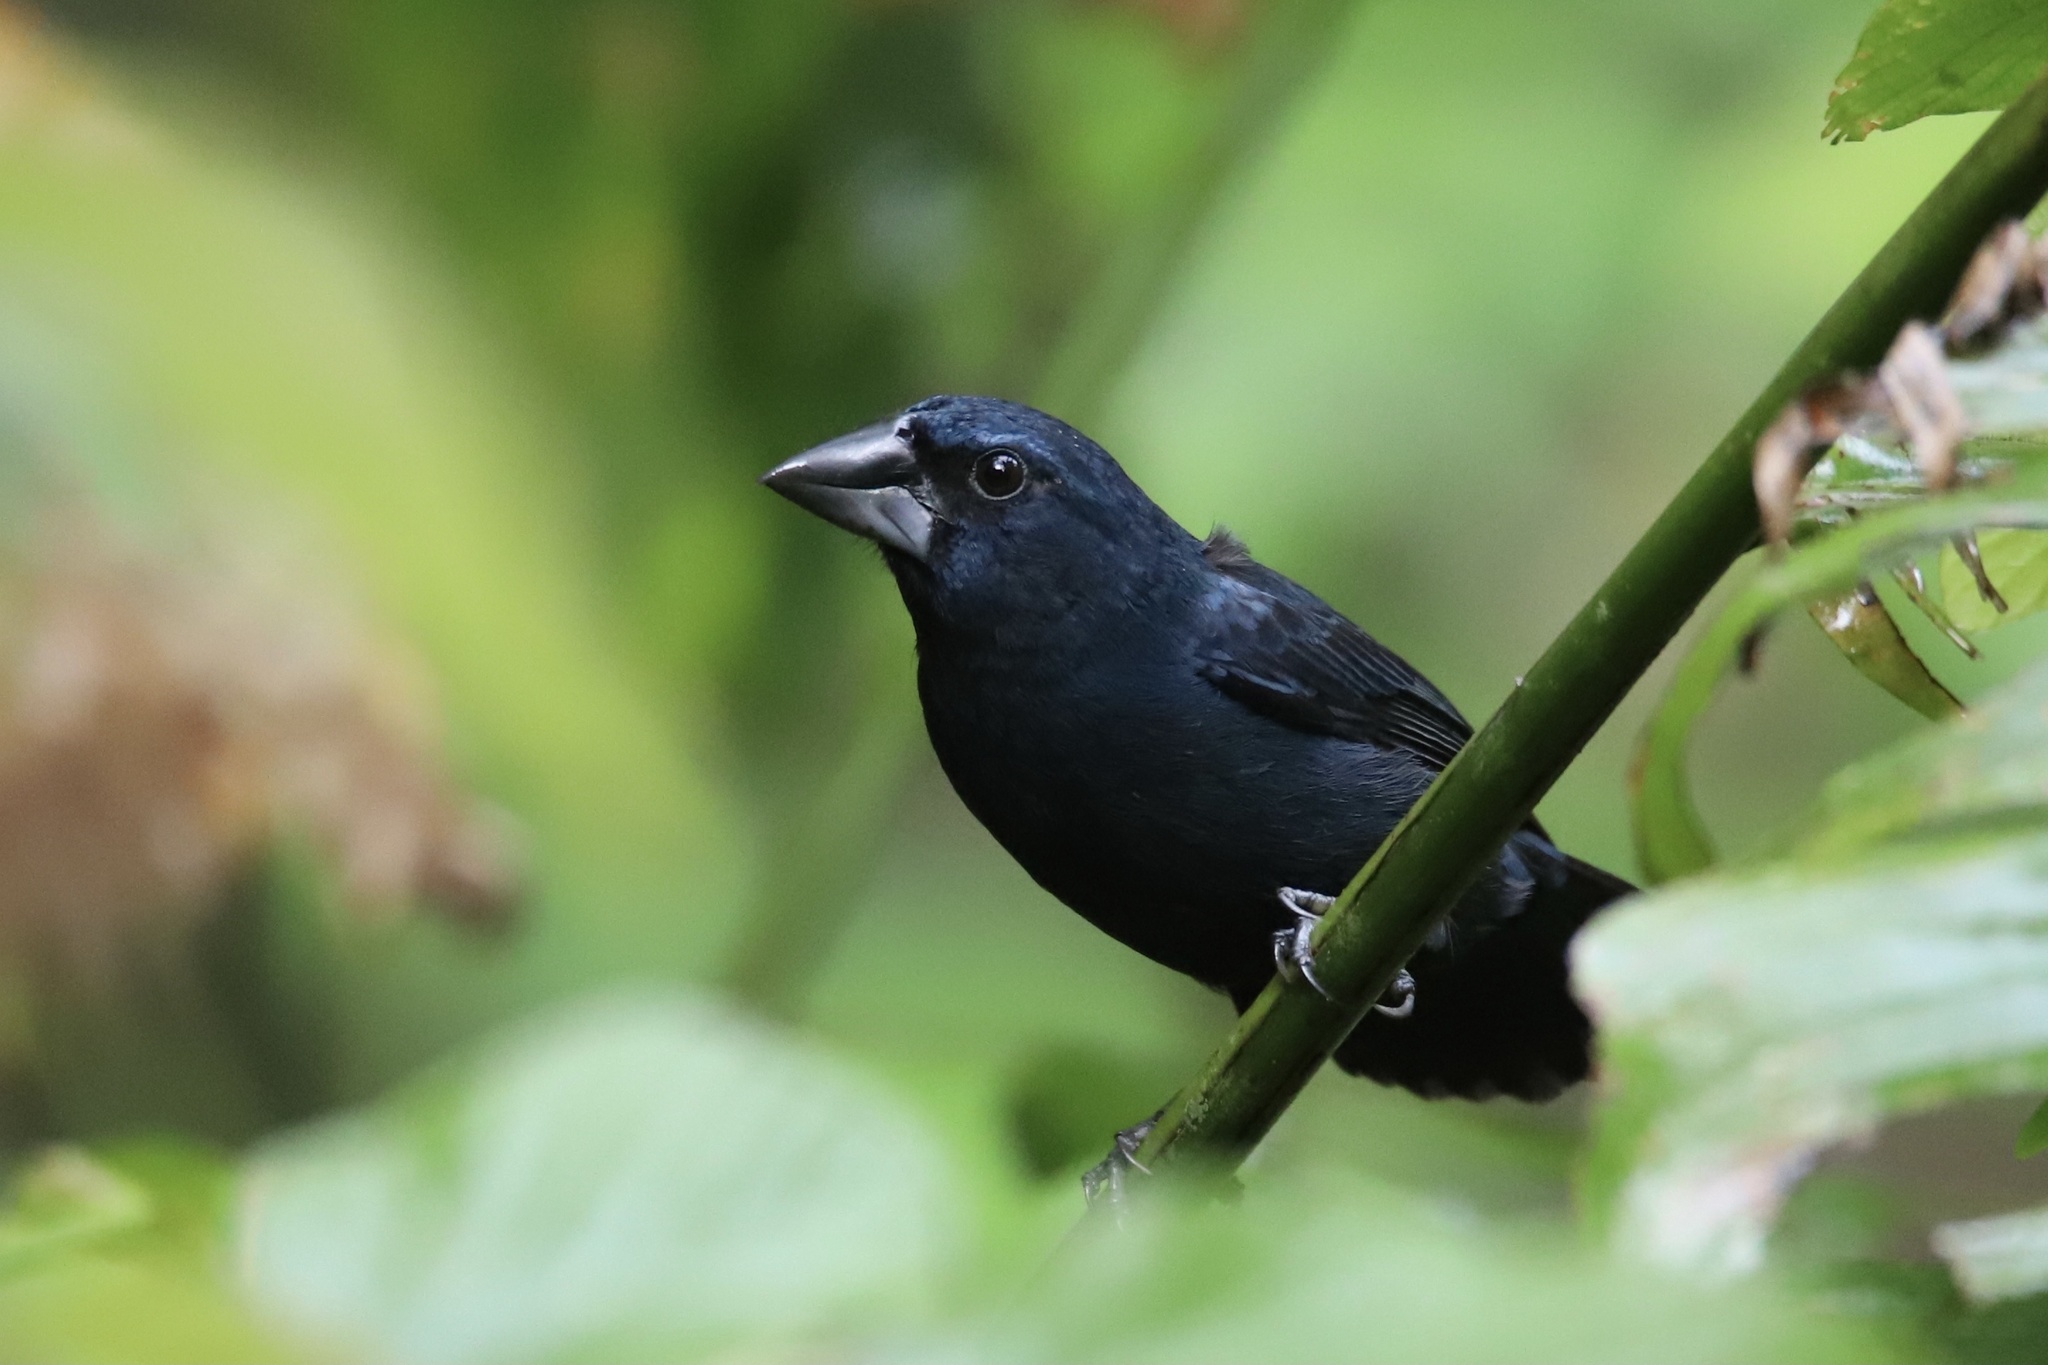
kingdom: Animalia
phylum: Chordata
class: Aves
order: Passeriformes
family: Cardinalidae
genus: Cyanocompsa
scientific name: Cyanocompsa cyanoides
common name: Blue-black grosbeak
